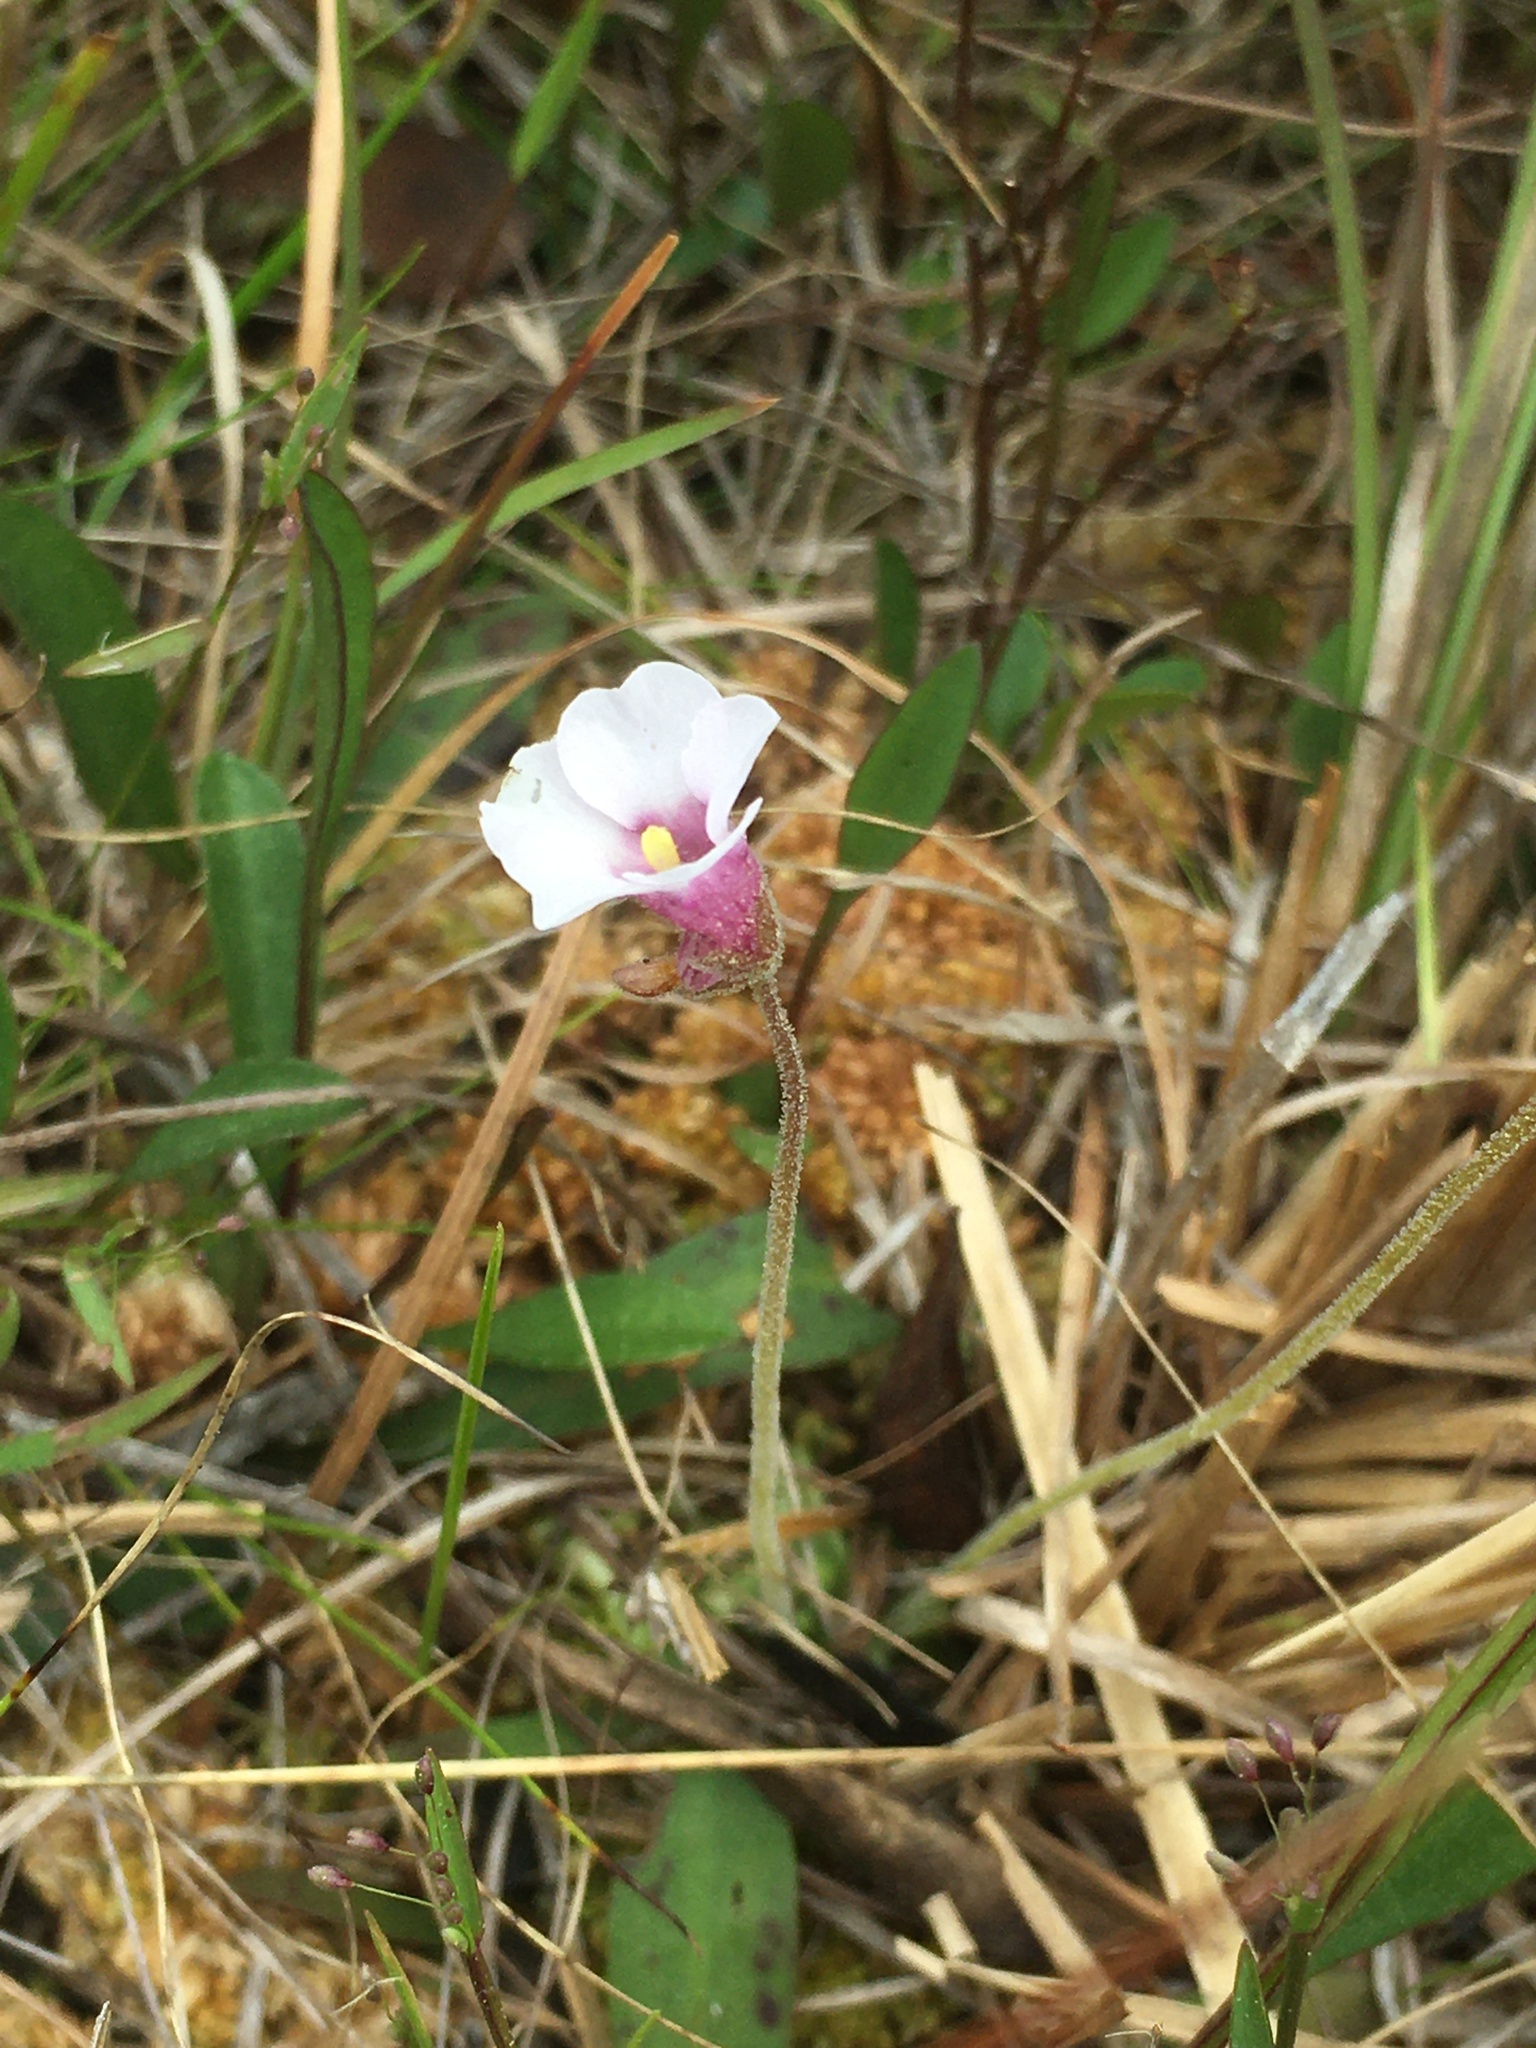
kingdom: Plantae
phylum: Tracheophyta
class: Magnoliopsida
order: Lamiales
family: Lentibulariaceae
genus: Pinguicula
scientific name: Pinguicula pumila
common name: Small butterwort
